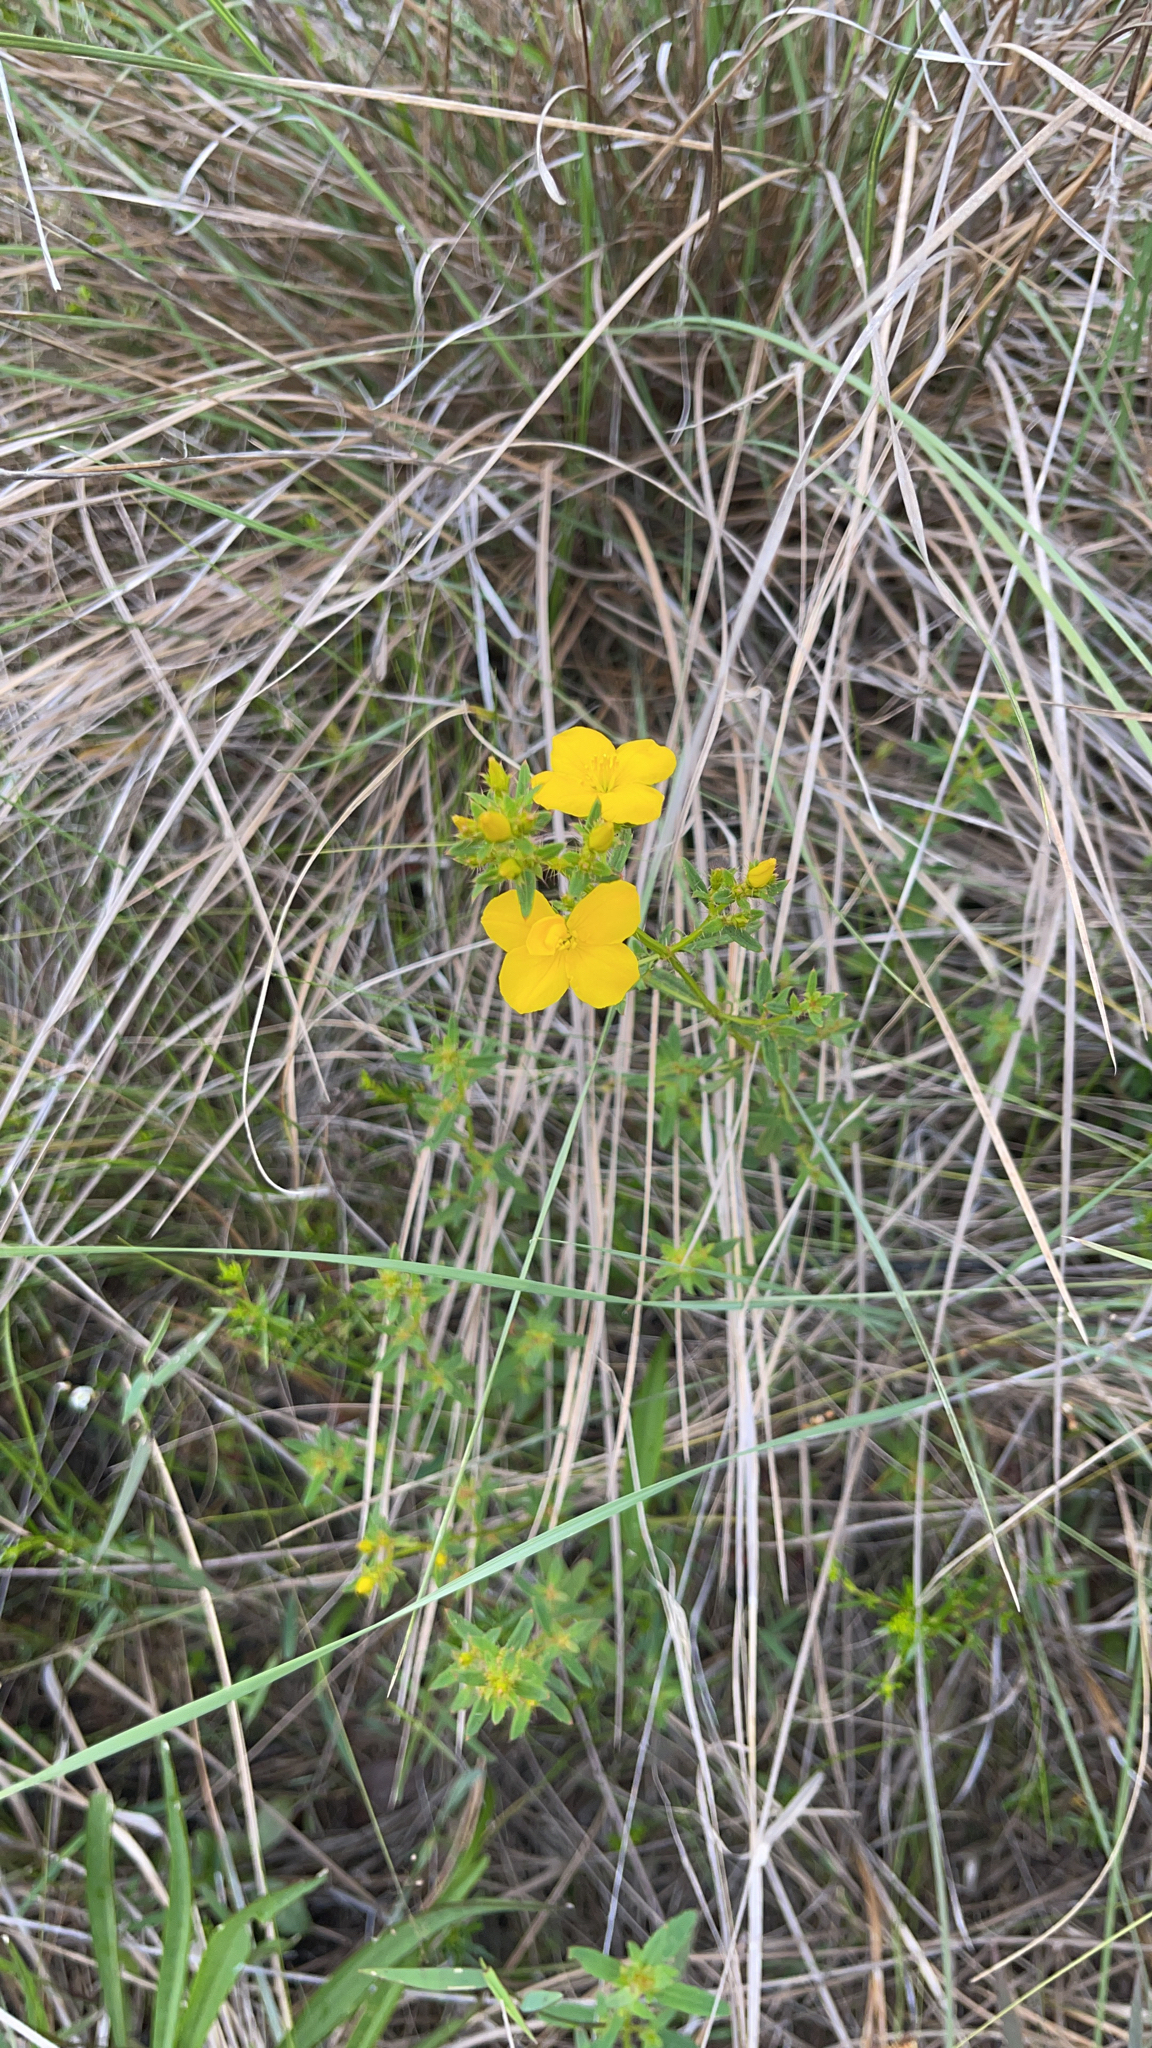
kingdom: Plantae
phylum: Tracheophyta
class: Magnoliopsida
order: Myrtales
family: Melastomataceae
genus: Rhexia
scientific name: Rhexia lutea
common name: Golden meadow-beauty
